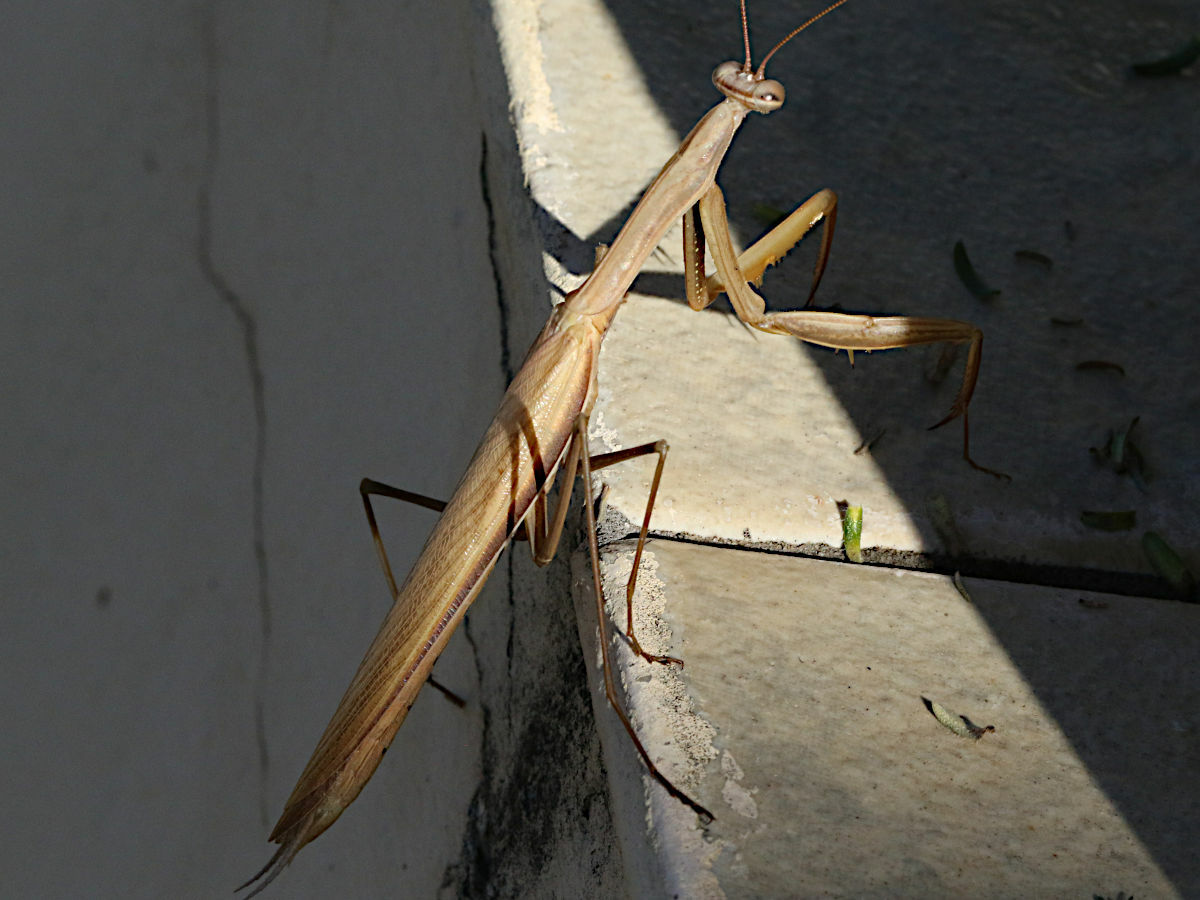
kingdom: Animalia
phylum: Arthropoda
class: Insecta
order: Mantodea
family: Mantidae
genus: Mantis
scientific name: Mantis religiosa
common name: Praying mantis
